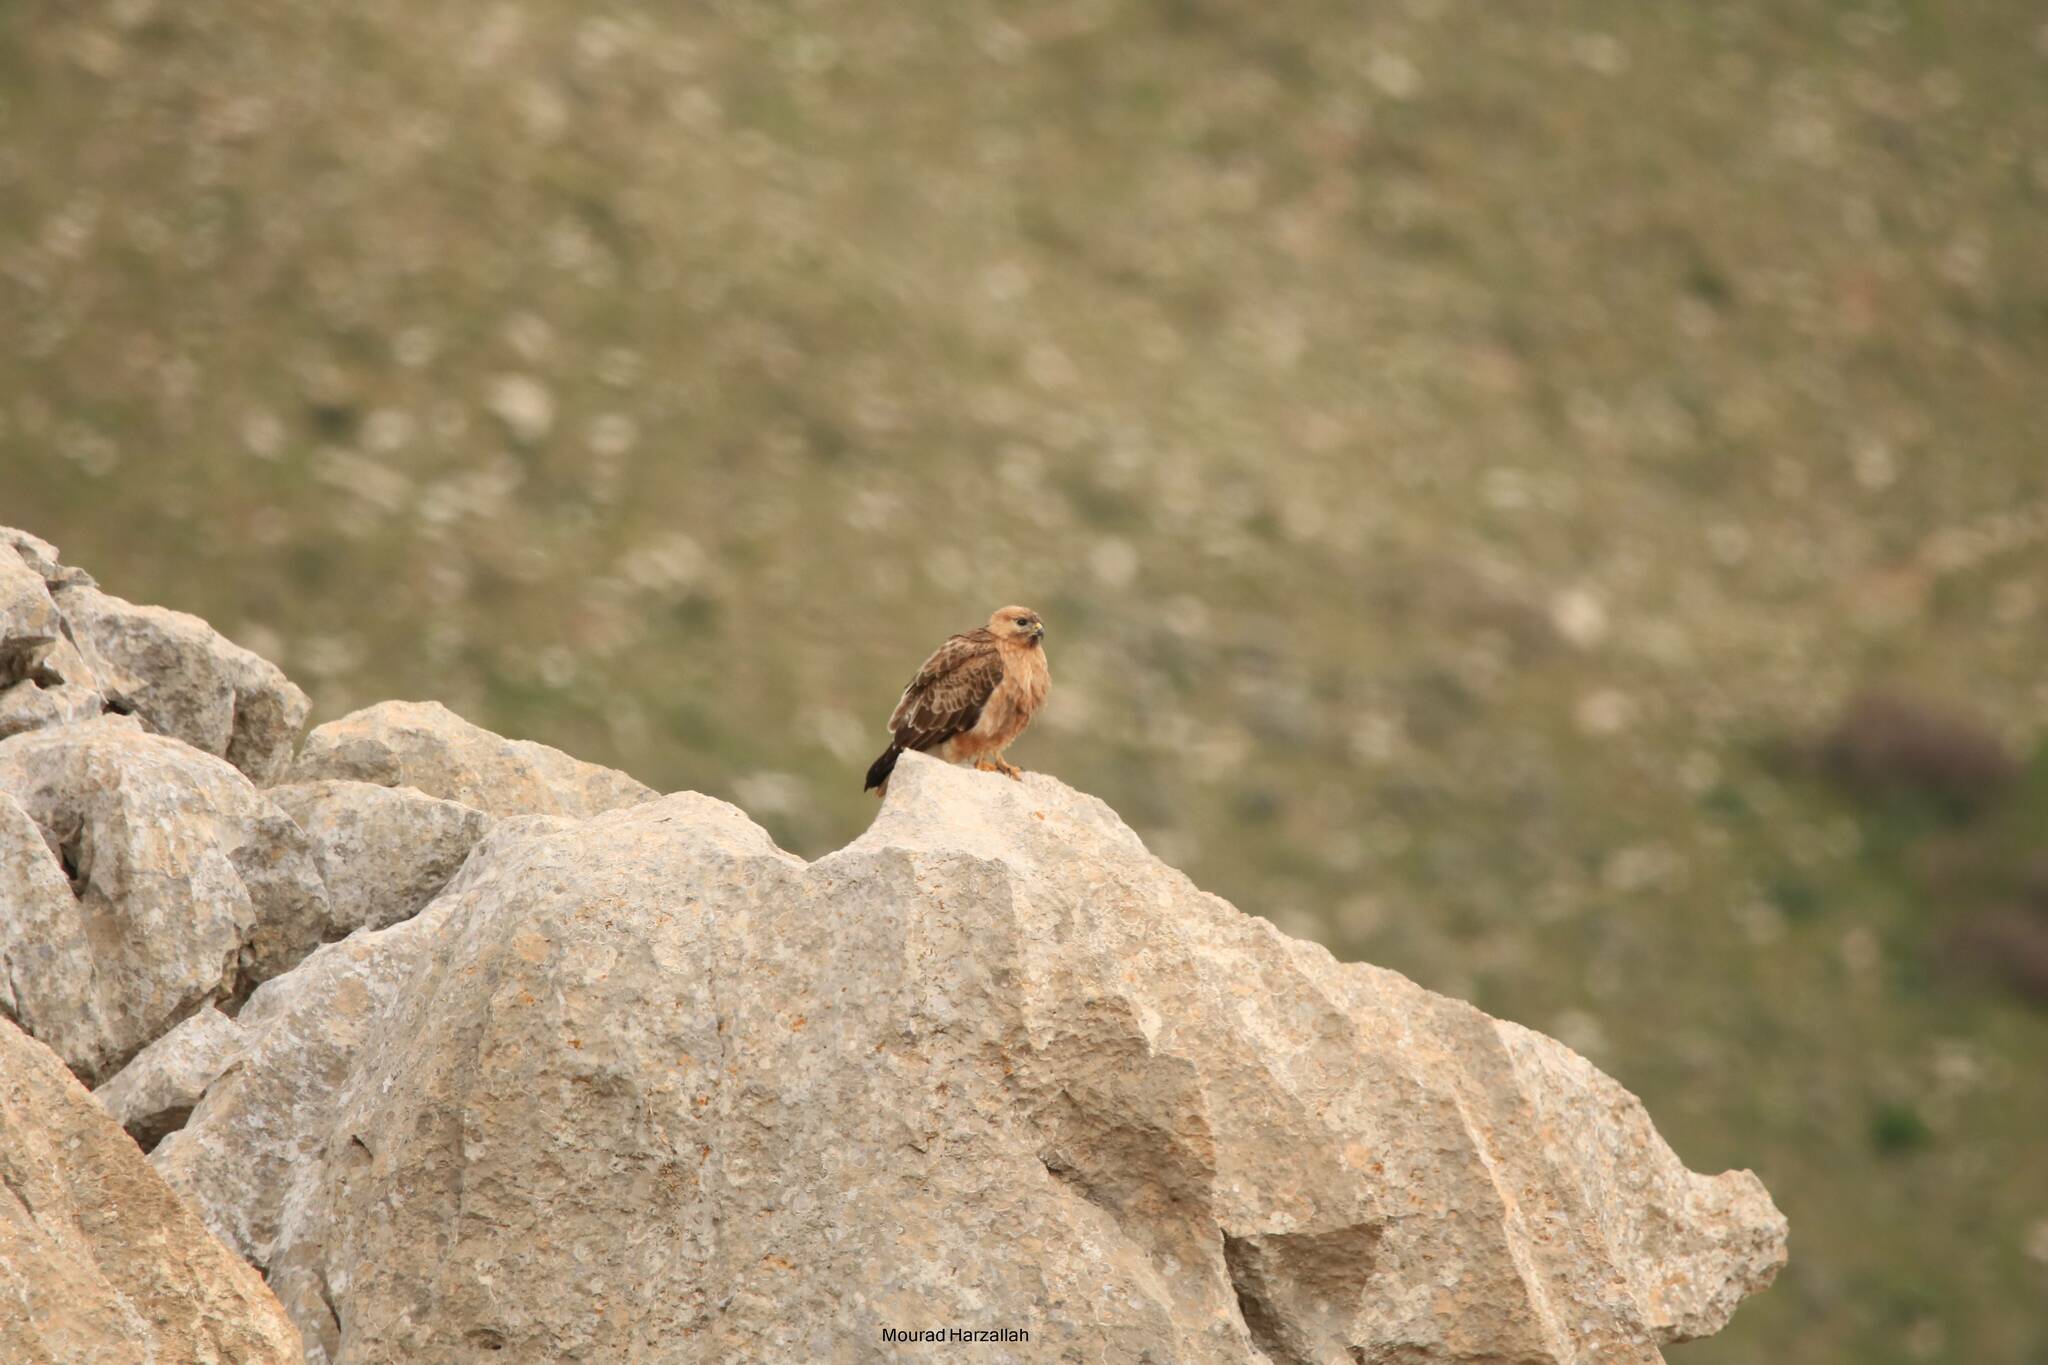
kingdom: Animalia
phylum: Chordata
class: Aves
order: Accipitriformes
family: Accipitridae
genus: Buteo
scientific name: Buteo rufinus
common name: Long-legged buzzard
